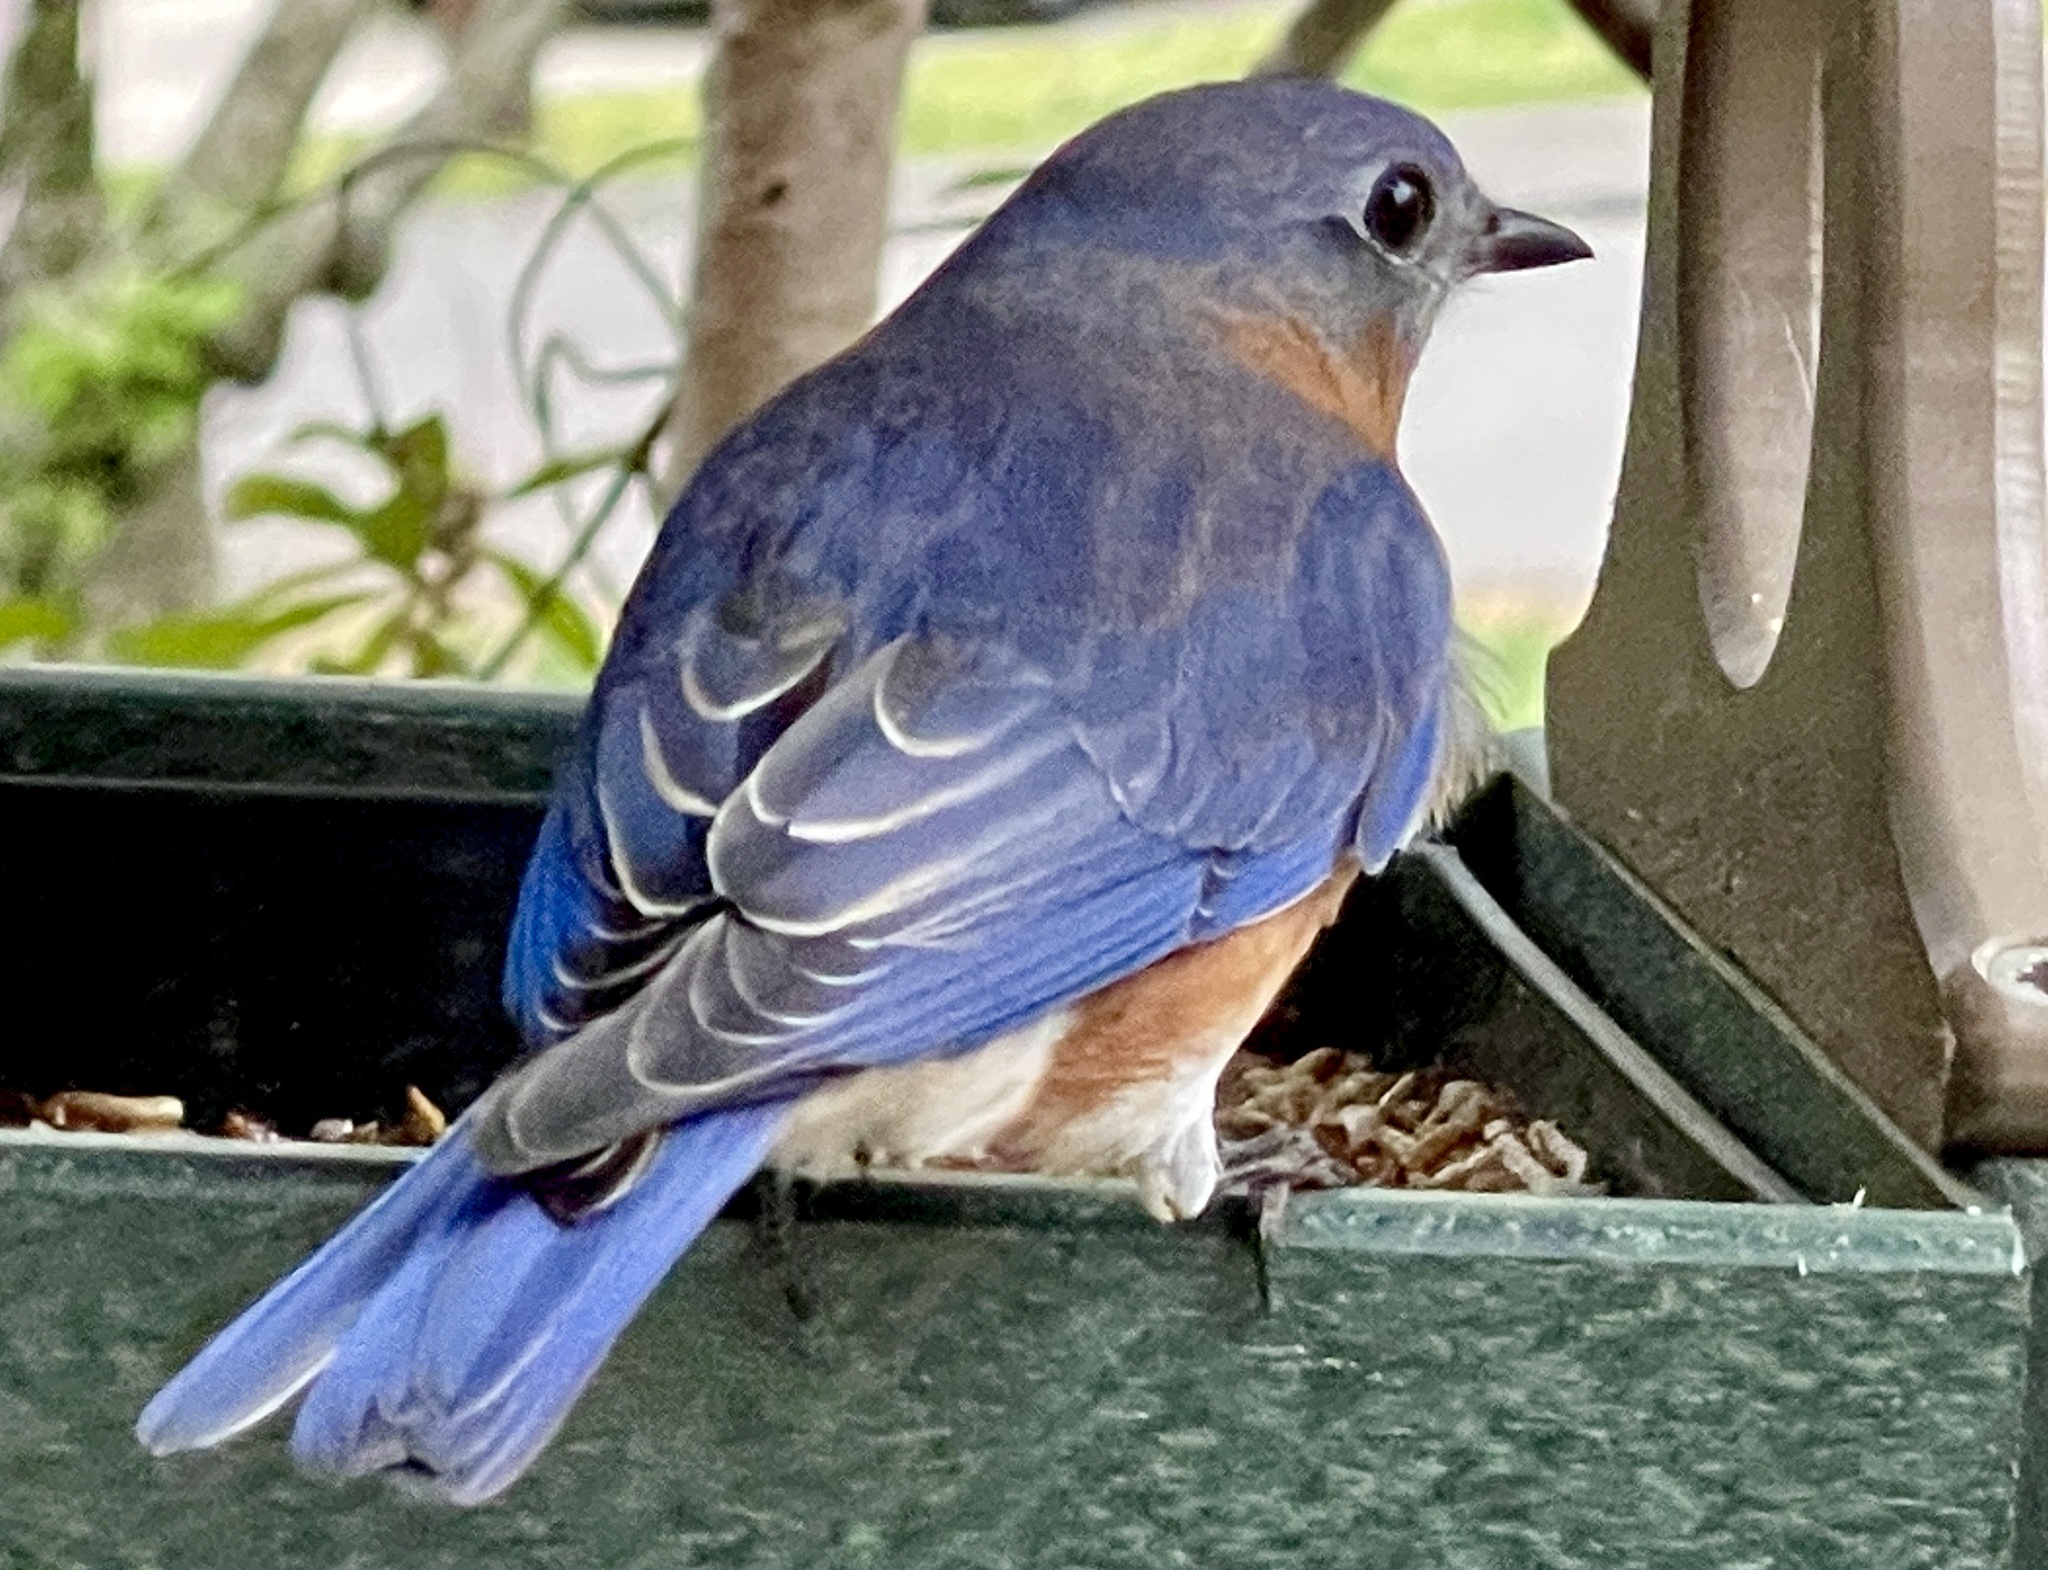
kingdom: Animalia
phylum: Chordata
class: Aves
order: Passeriformes
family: Turdidae
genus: Sialia
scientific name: Sialia sialis
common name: Eastern bluebird
